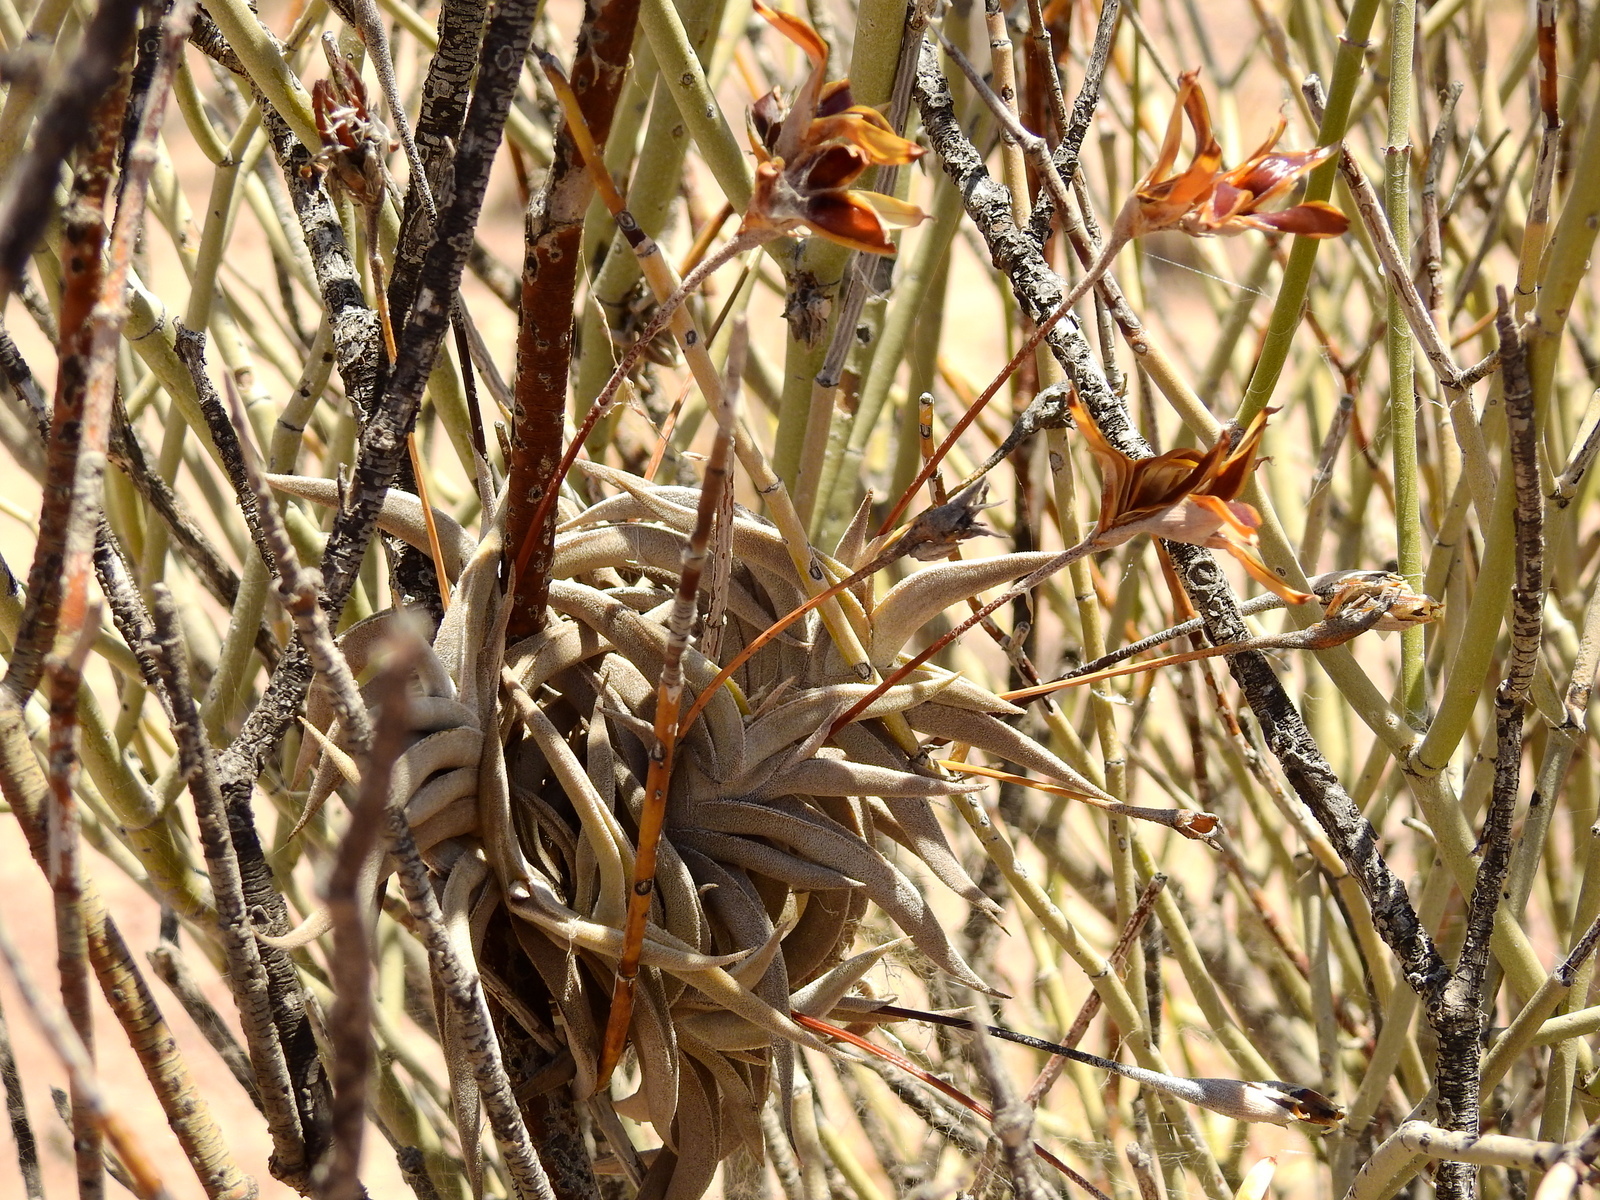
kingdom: Plantae
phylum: Tracheophyta
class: Liliopsida
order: Poales
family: Bromeliaceae
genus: Tillandsia
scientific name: Tillandsia gilliesii
